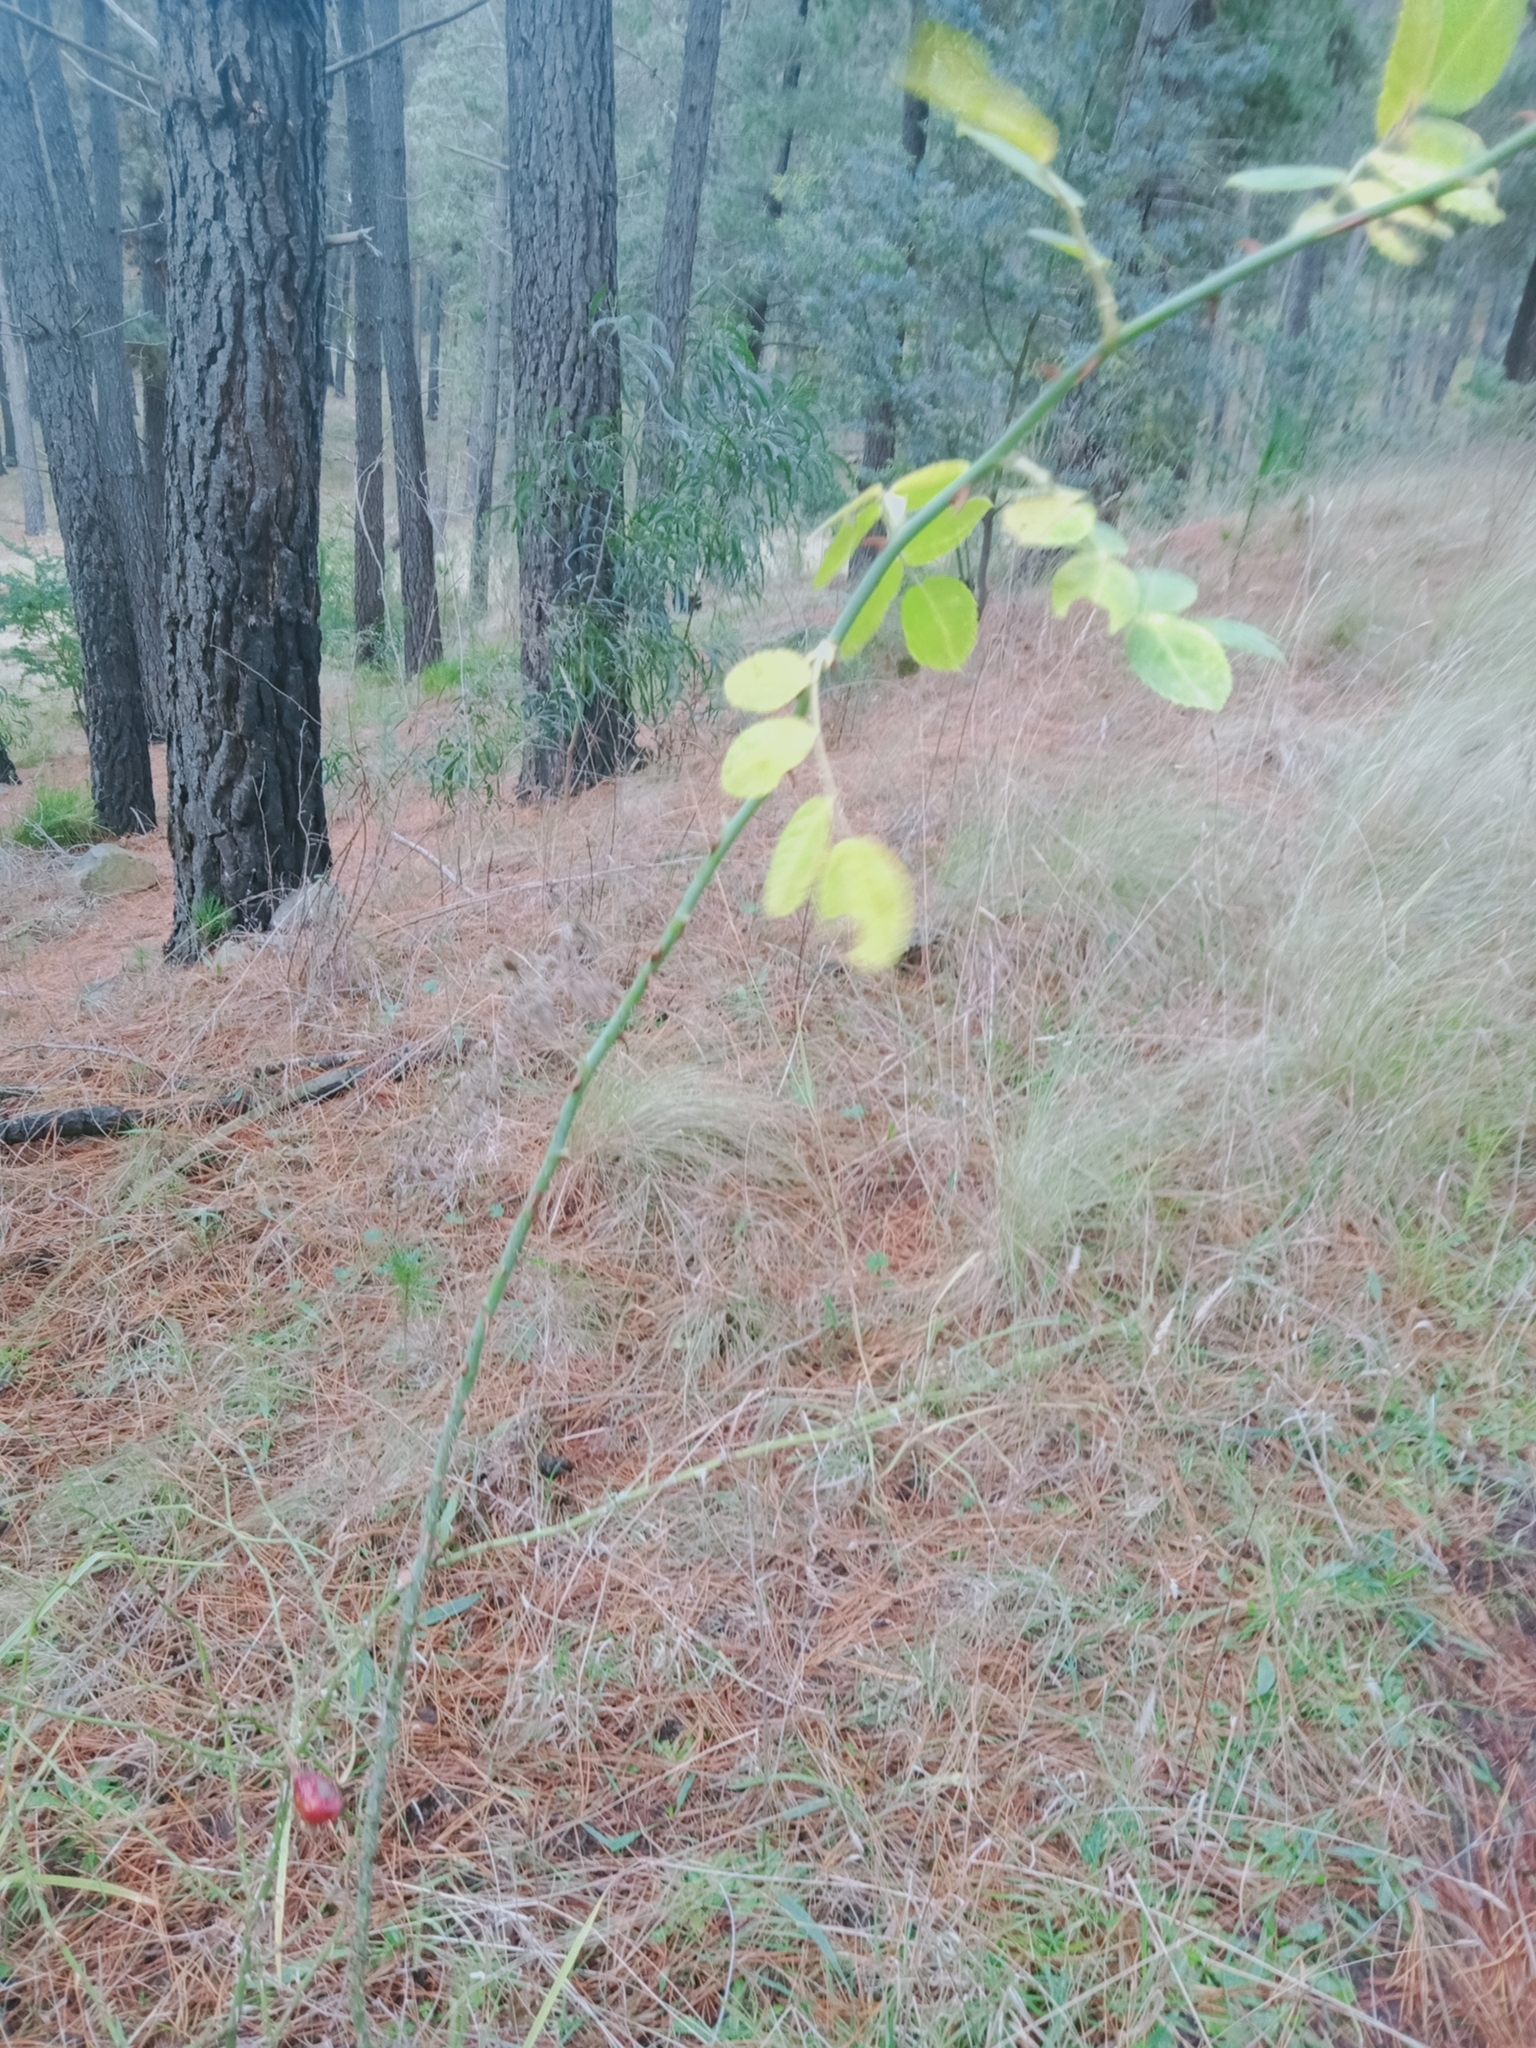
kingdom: Plantae
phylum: Tracheophyta
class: Magnoliopsida
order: Rosales
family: Rosaceae
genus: Rosa
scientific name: Rosa rubiginosa
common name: Sweet-briar
